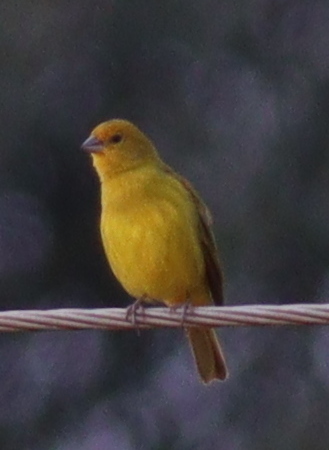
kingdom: Animalia
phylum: Chordata
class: Aves
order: Passeriformes
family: Thraupidae
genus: Sicalis
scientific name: Sicalis flaveola
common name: Saffron finch
